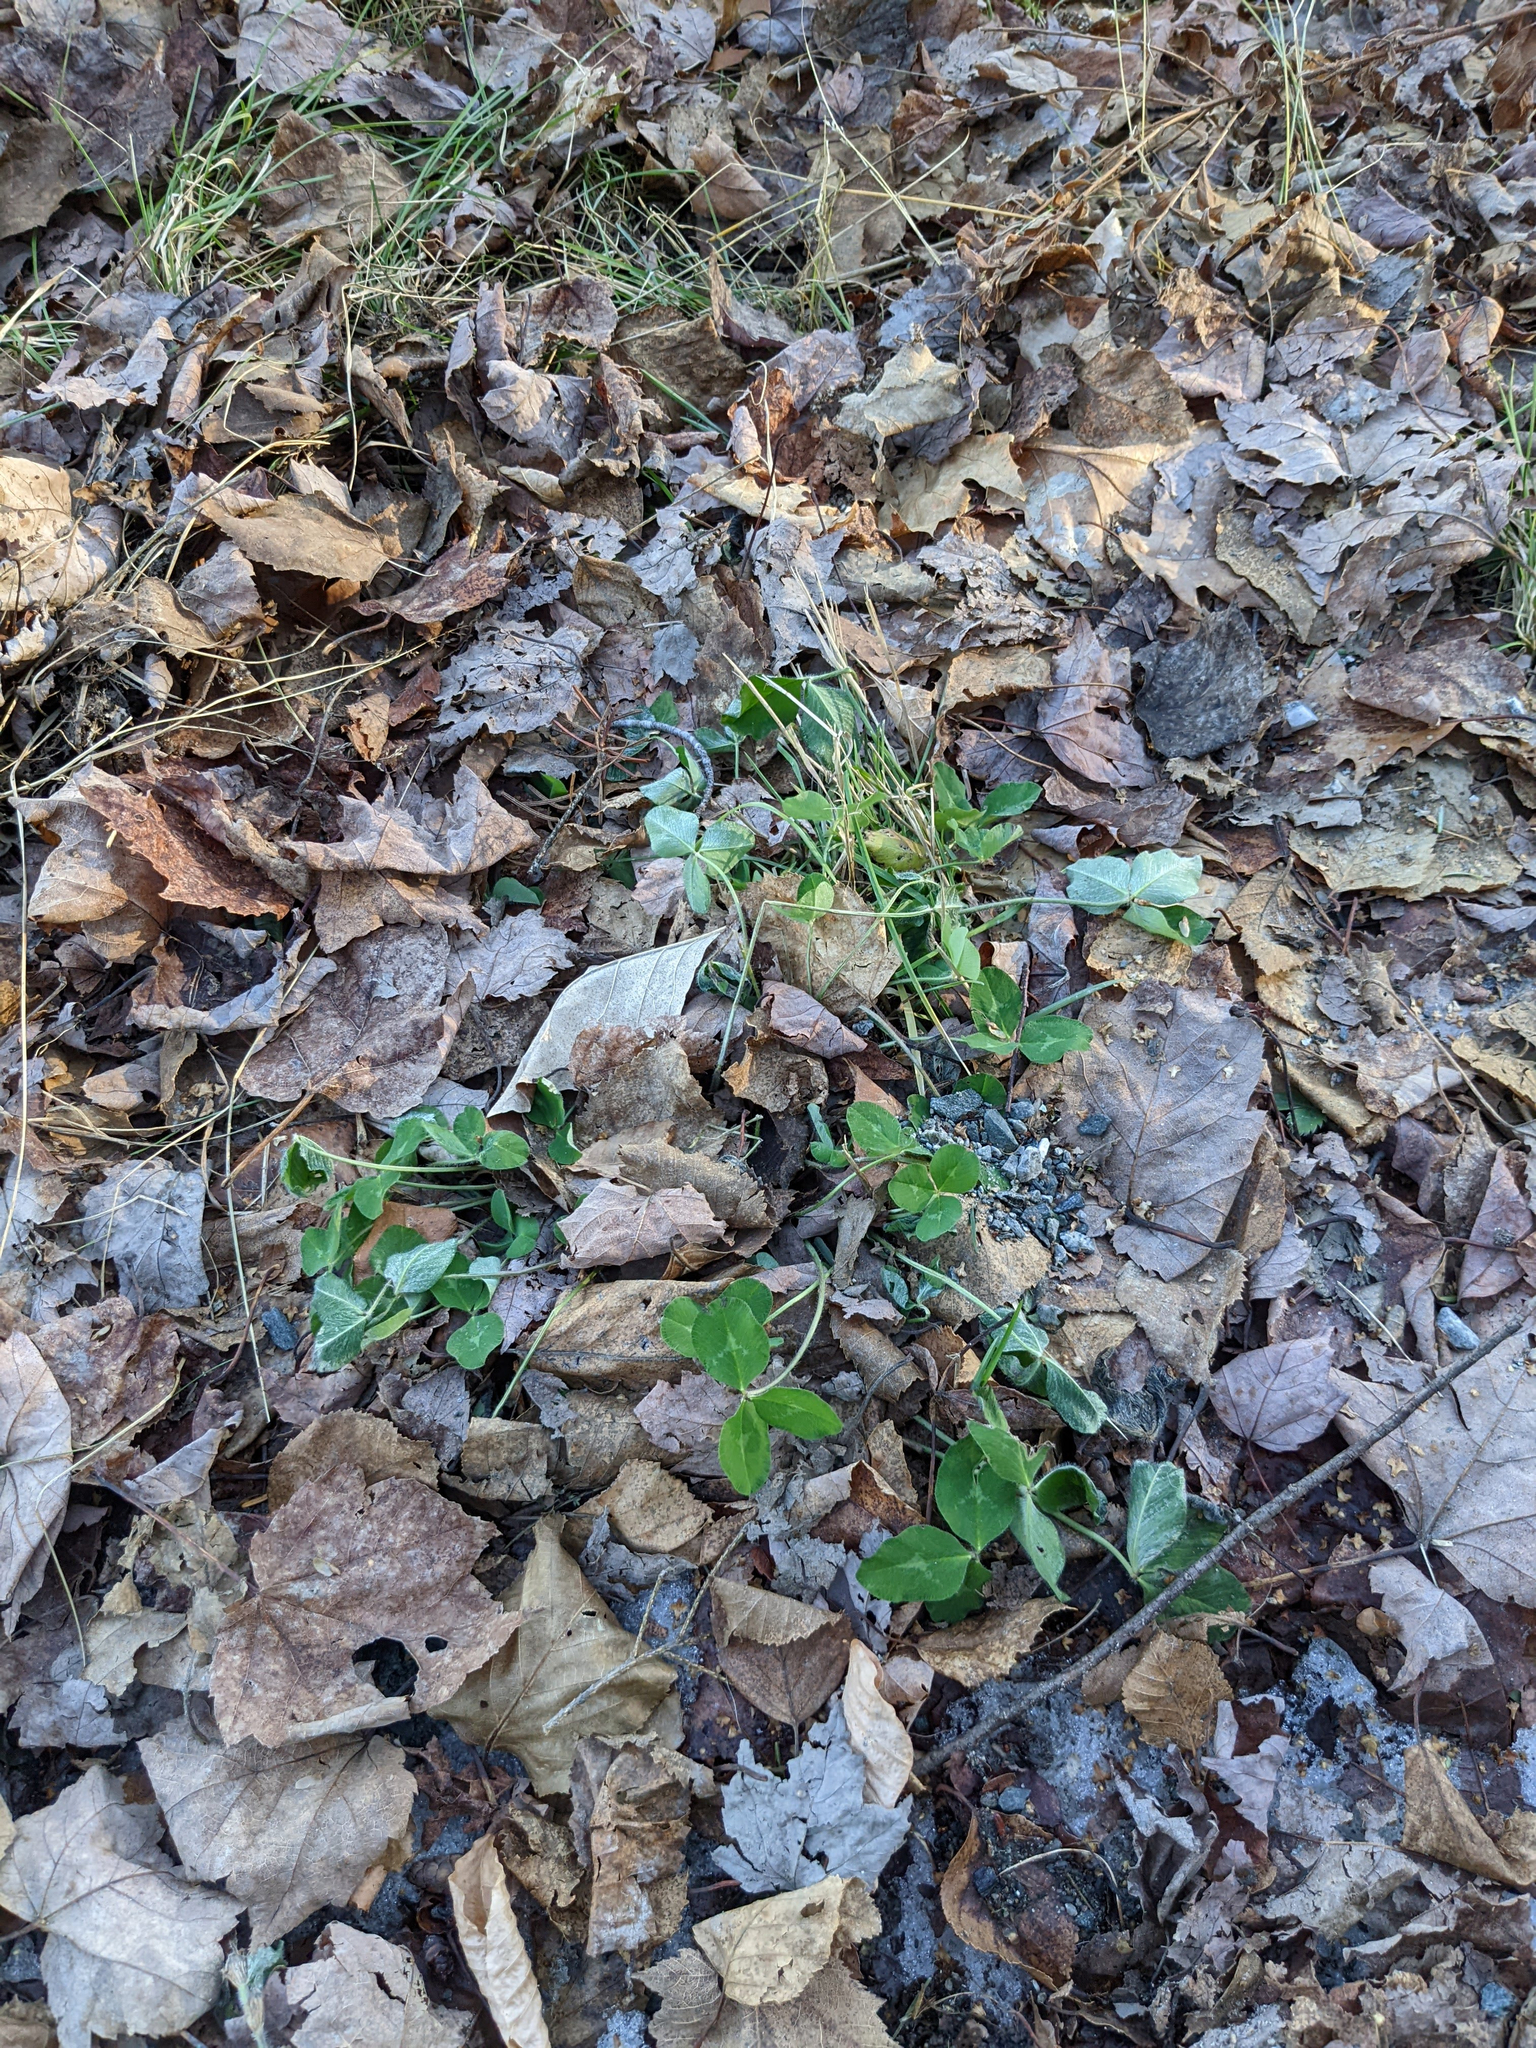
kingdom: Plantae
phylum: Tracheophyta
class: Magnoliopsida
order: Fabales
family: Fabaceae
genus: Trifolium
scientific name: Trifolium pratense
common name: Red clover
